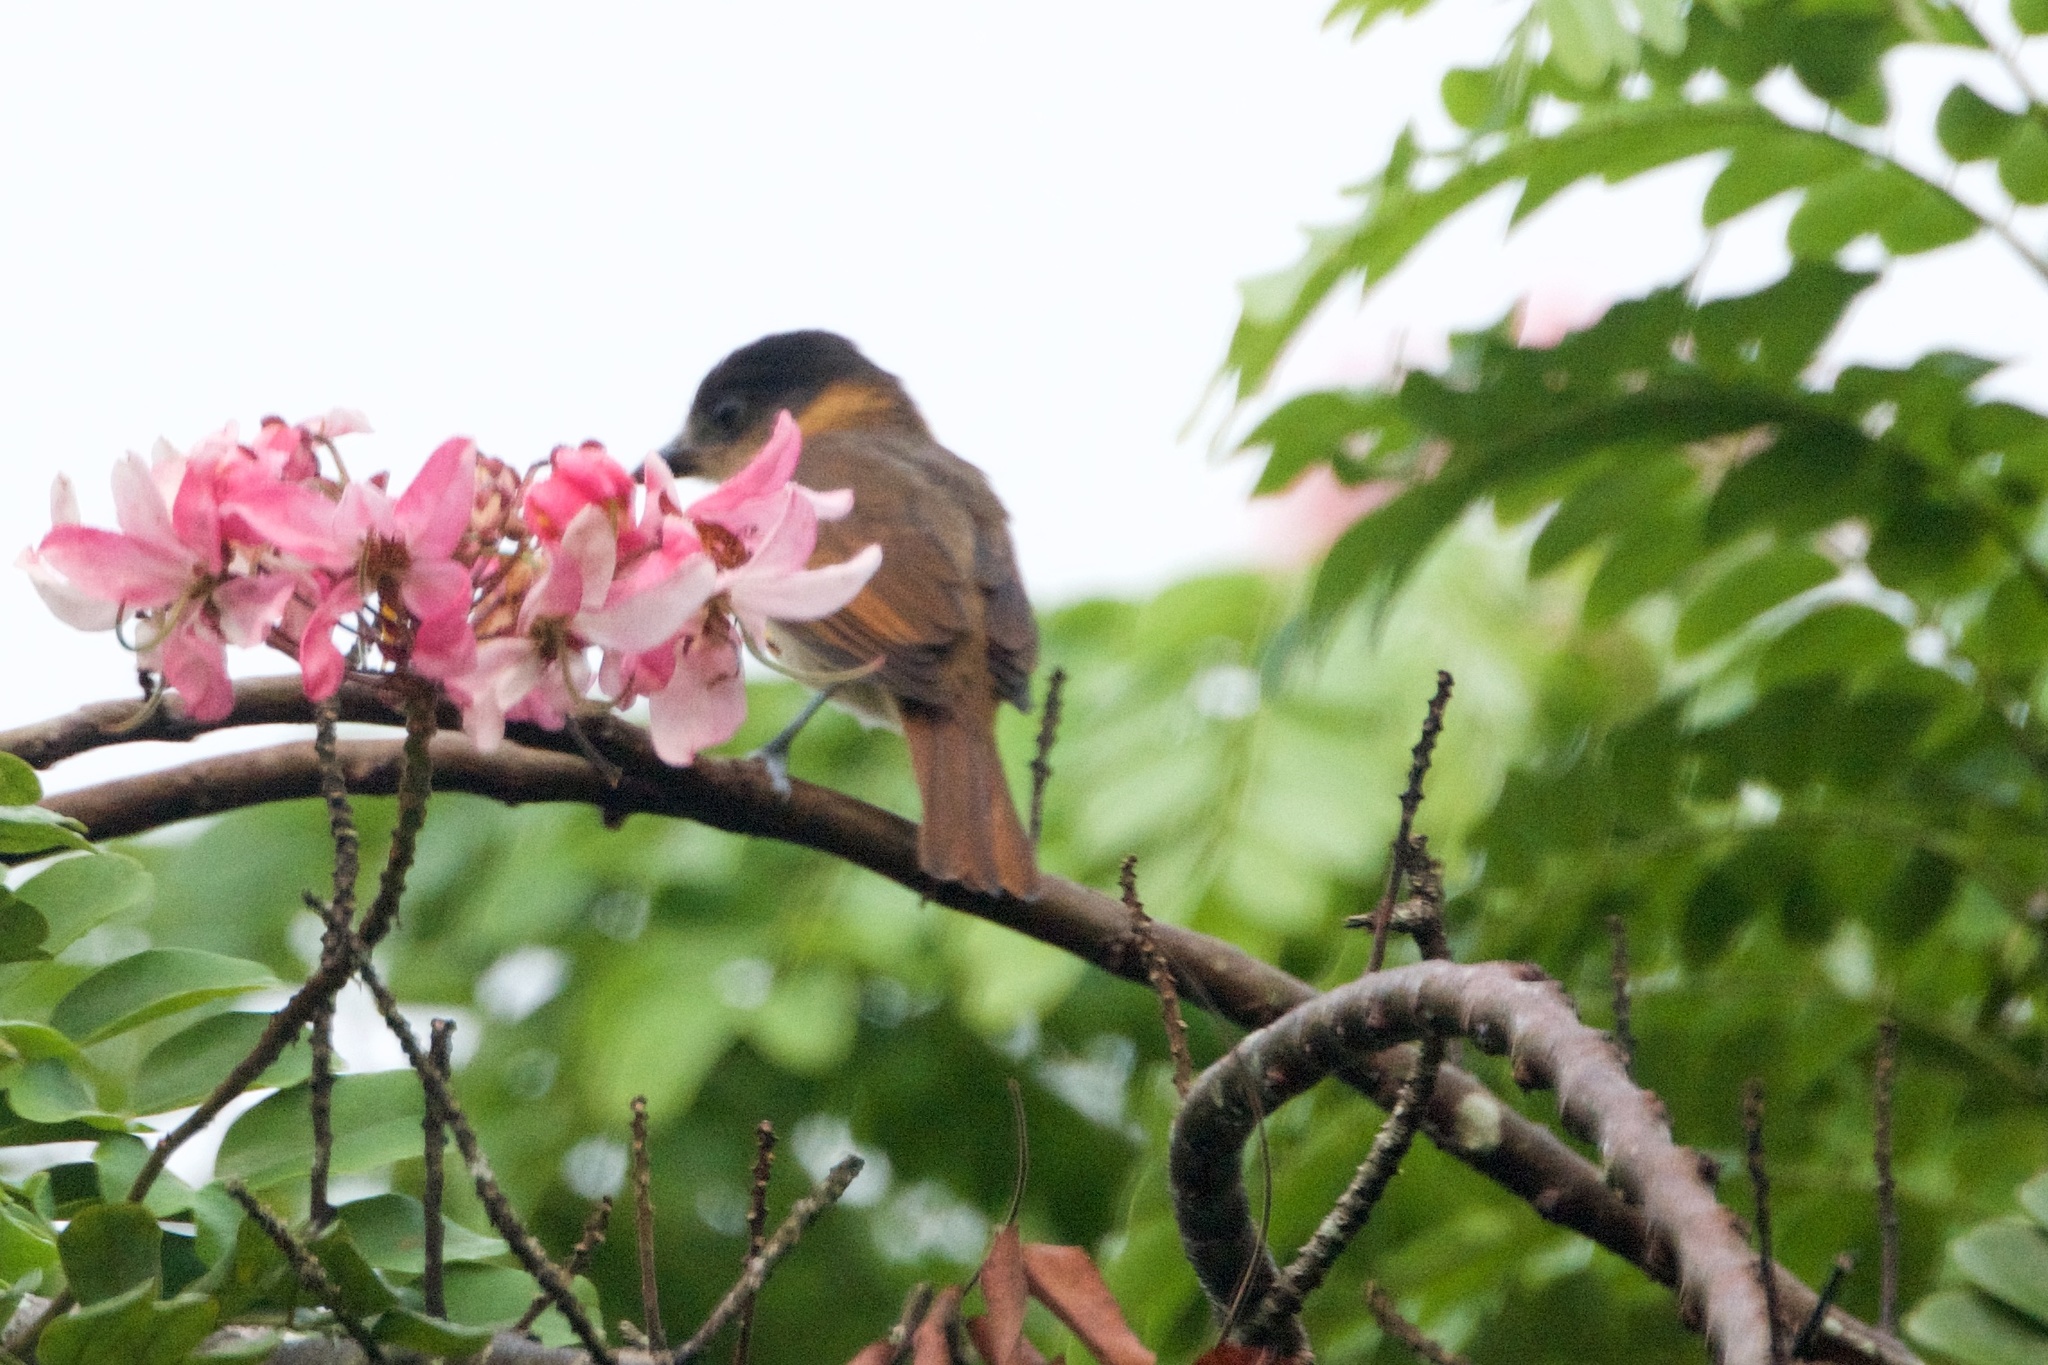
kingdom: Animalia
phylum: Chordata
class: Aves
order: Passeriformes
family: Cotingidae
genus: Pachyramphus
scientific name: Pachyramphus aglaiae
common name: Rose-throated becard
